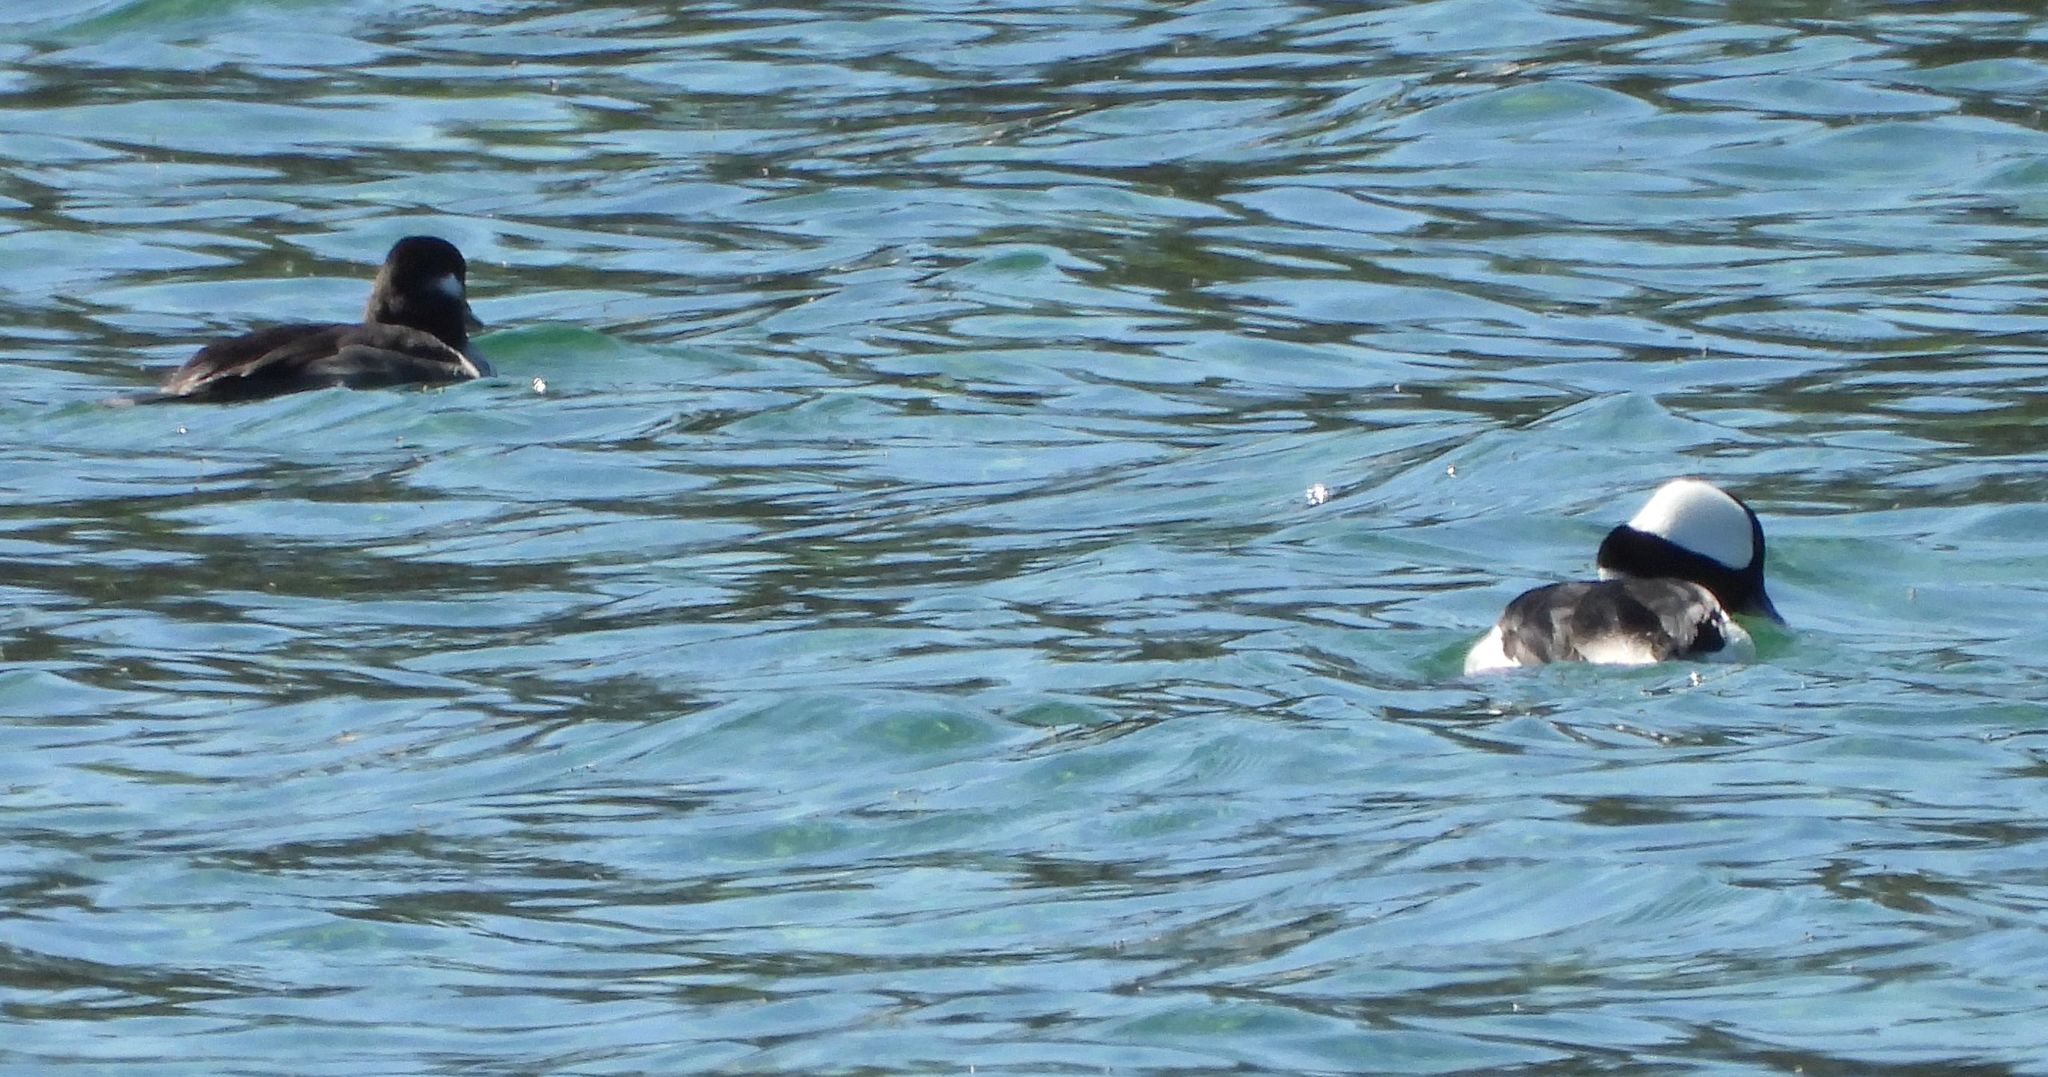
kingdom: Animalia
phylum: Chordata
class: Aves
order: Anseriformes
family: Anatidae
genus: Bucephala
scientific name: Bucephala albeola
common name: Bufflehead
